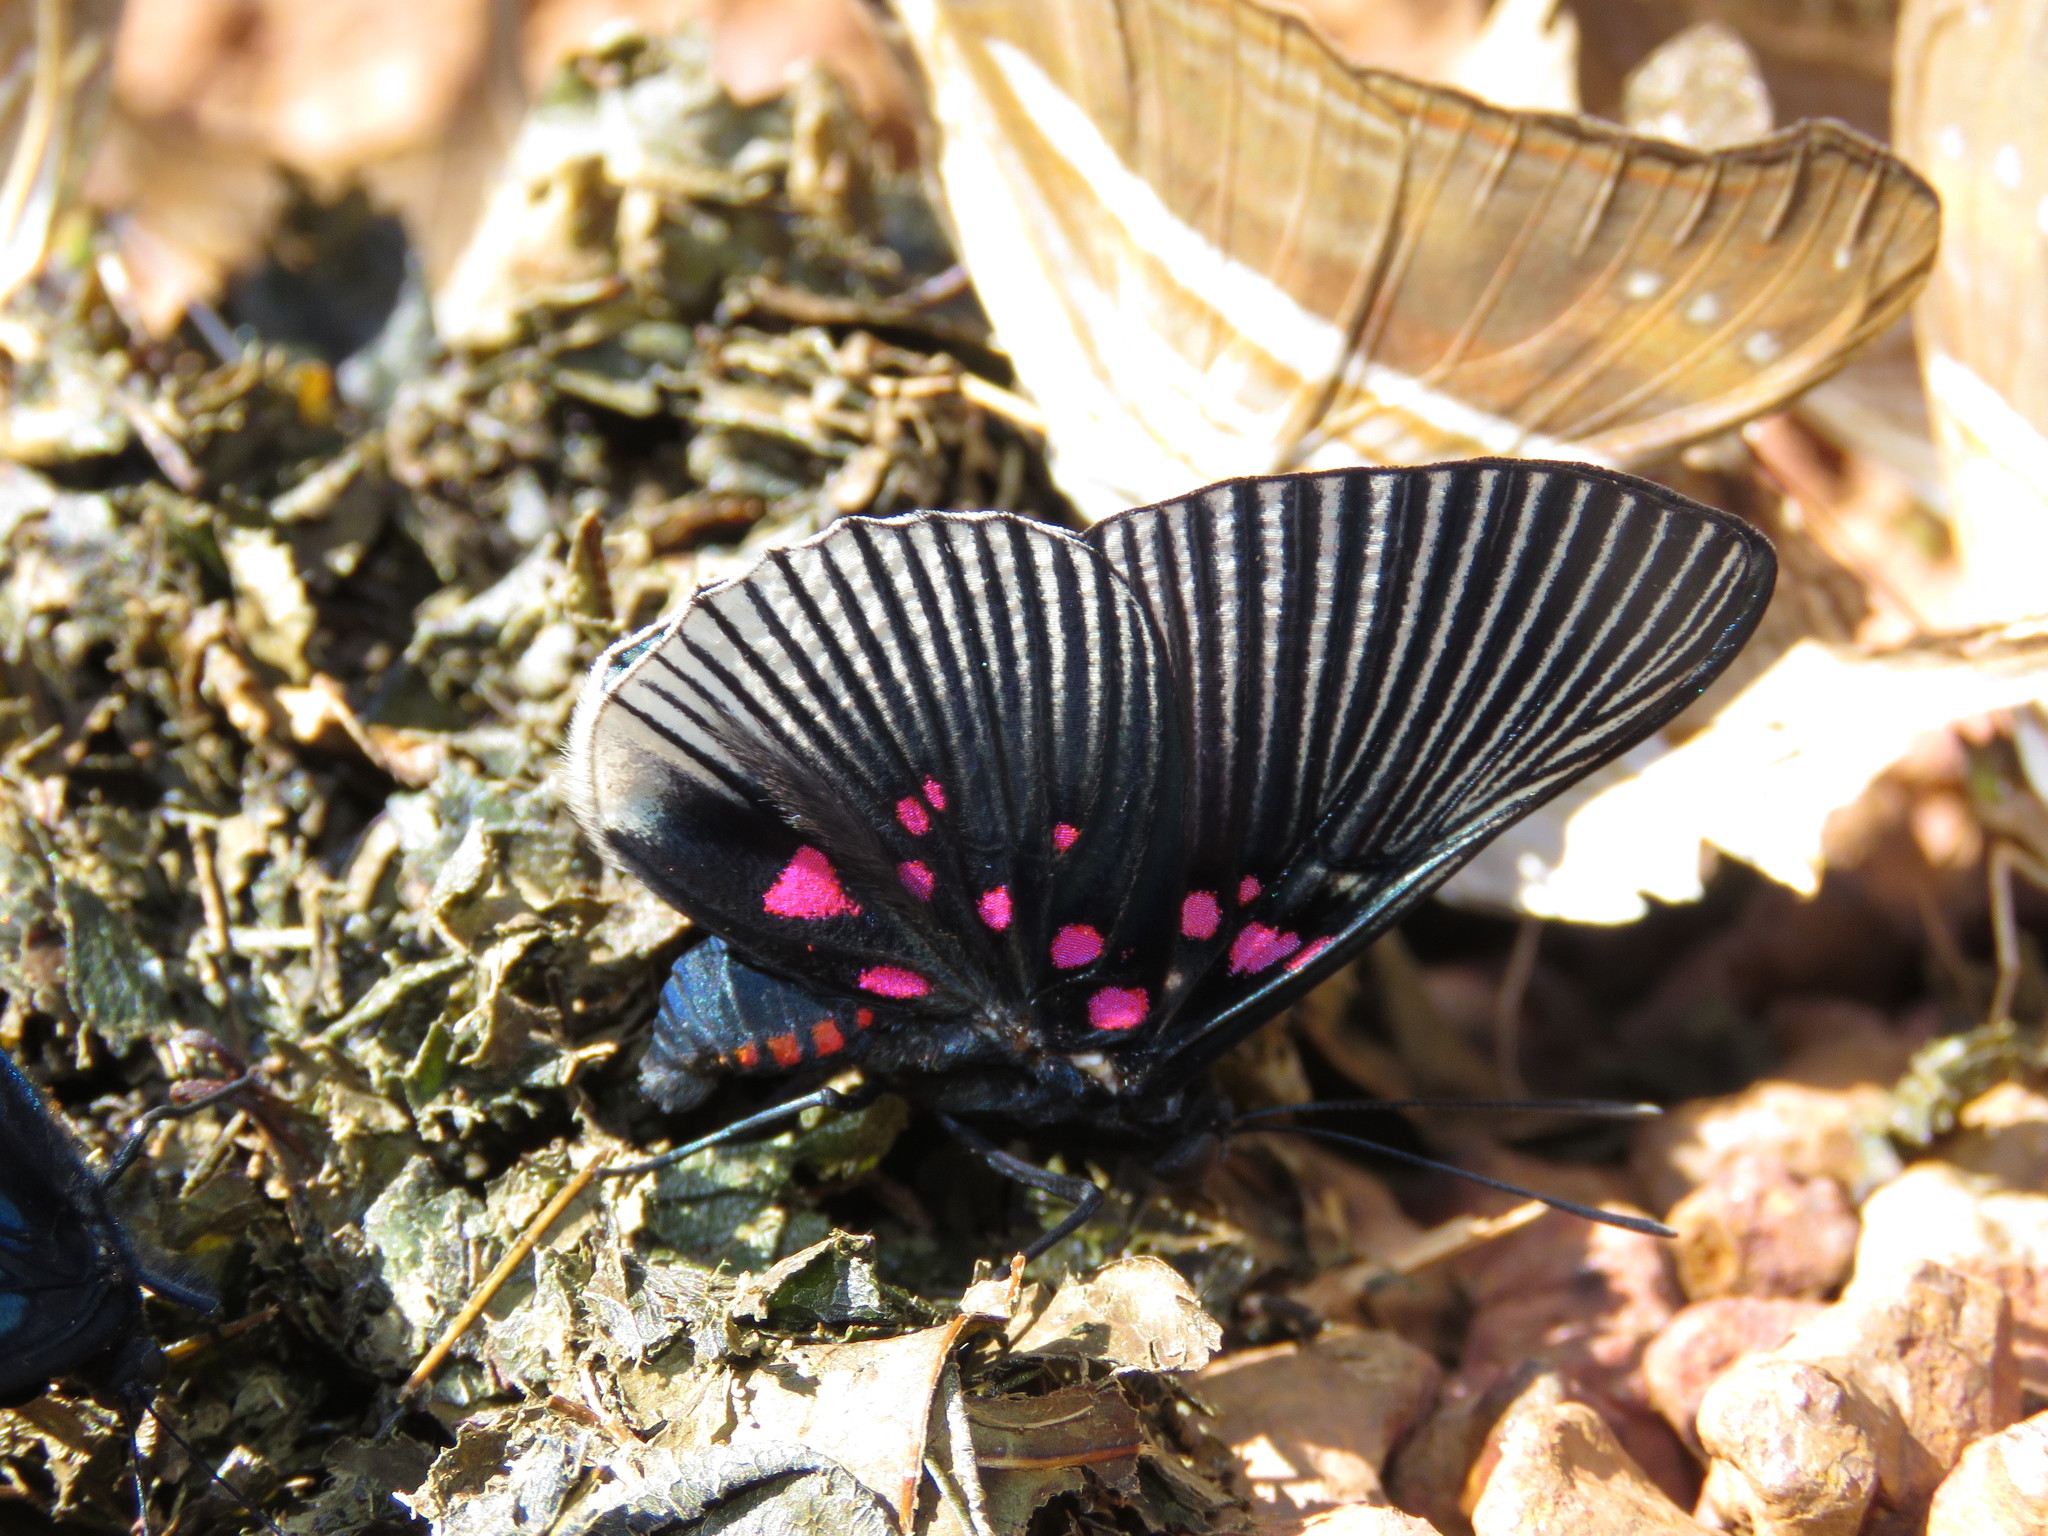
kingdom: Animalia
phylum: Arthropoda
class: Insecta
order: Lepidoptera
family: Riodinidae
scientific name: Riodinidae
